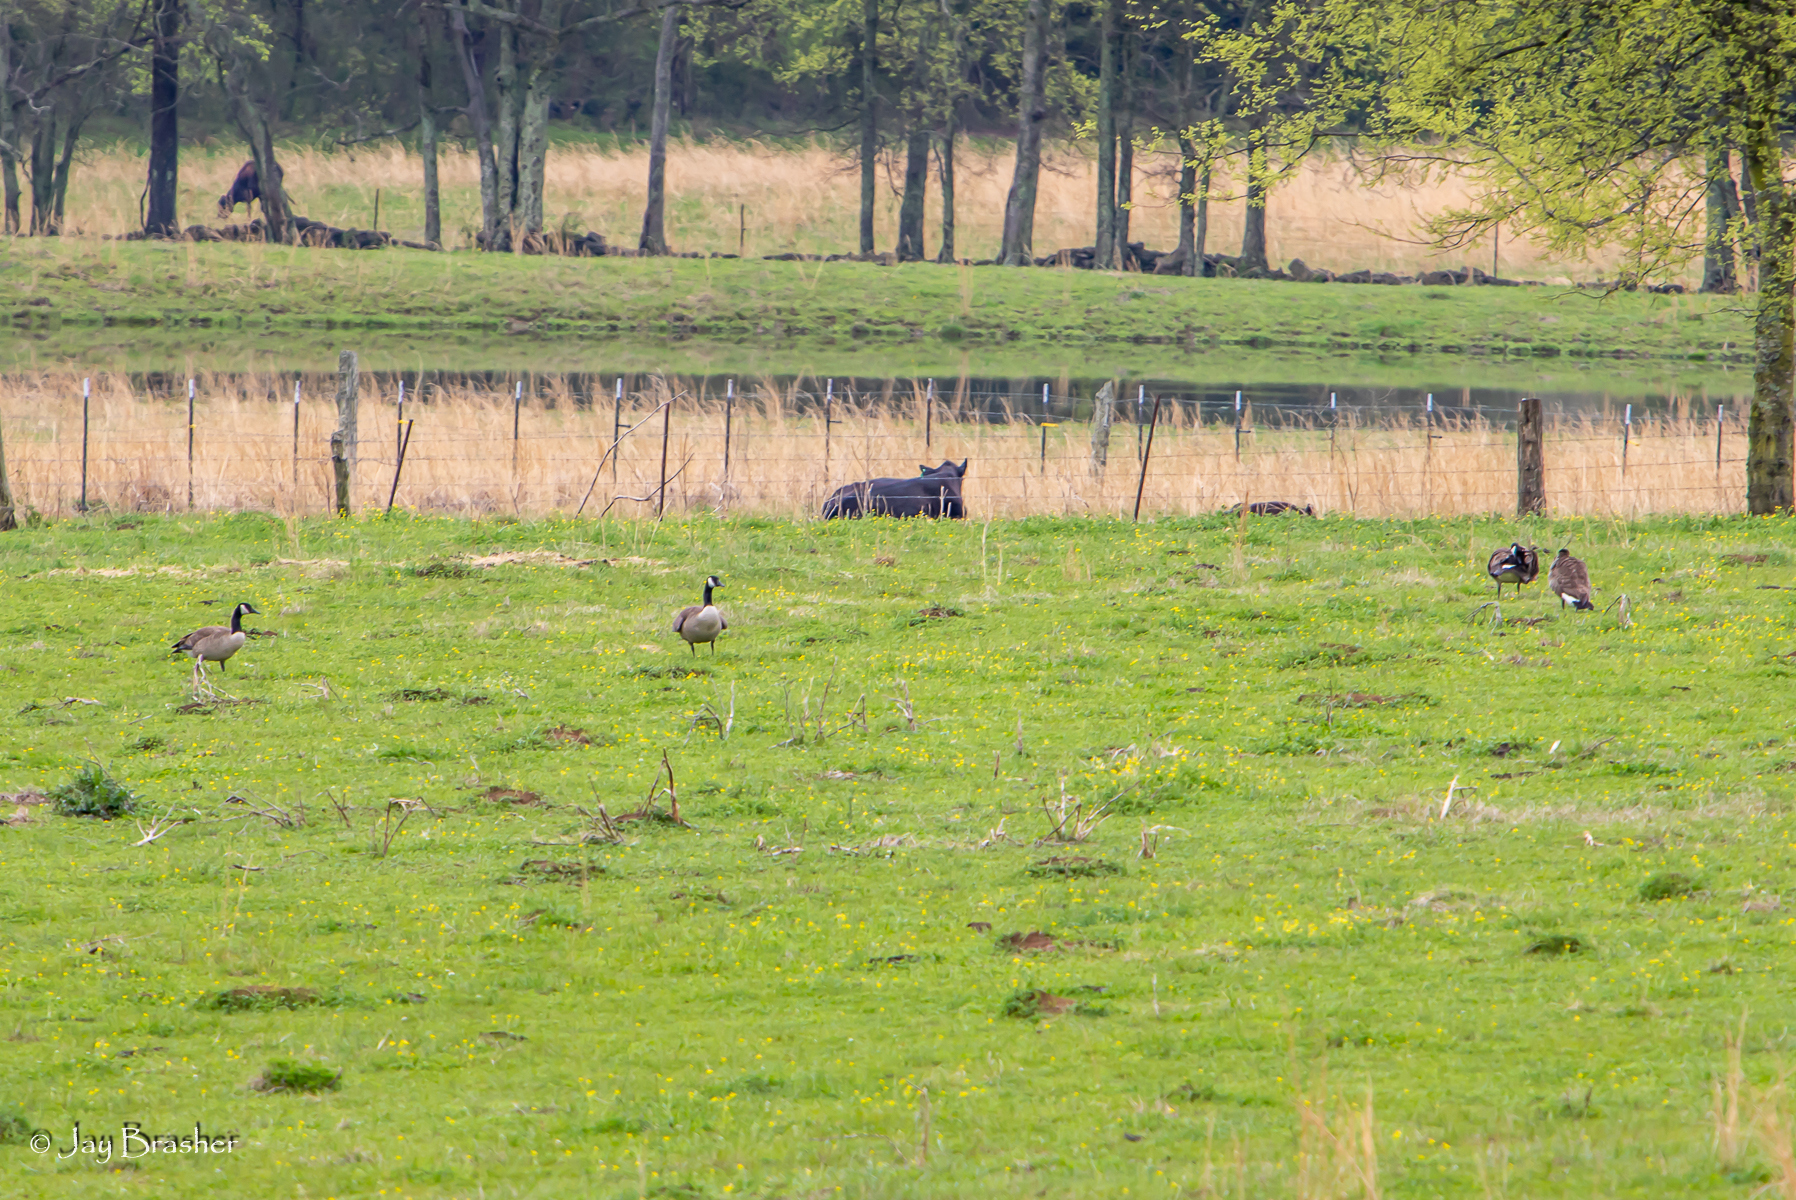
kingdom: Animalia
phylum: Chordata
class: Aves
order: Anseriformes
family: Anatidae
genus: Branta
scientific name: Branta canadensis
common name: Canada goose
